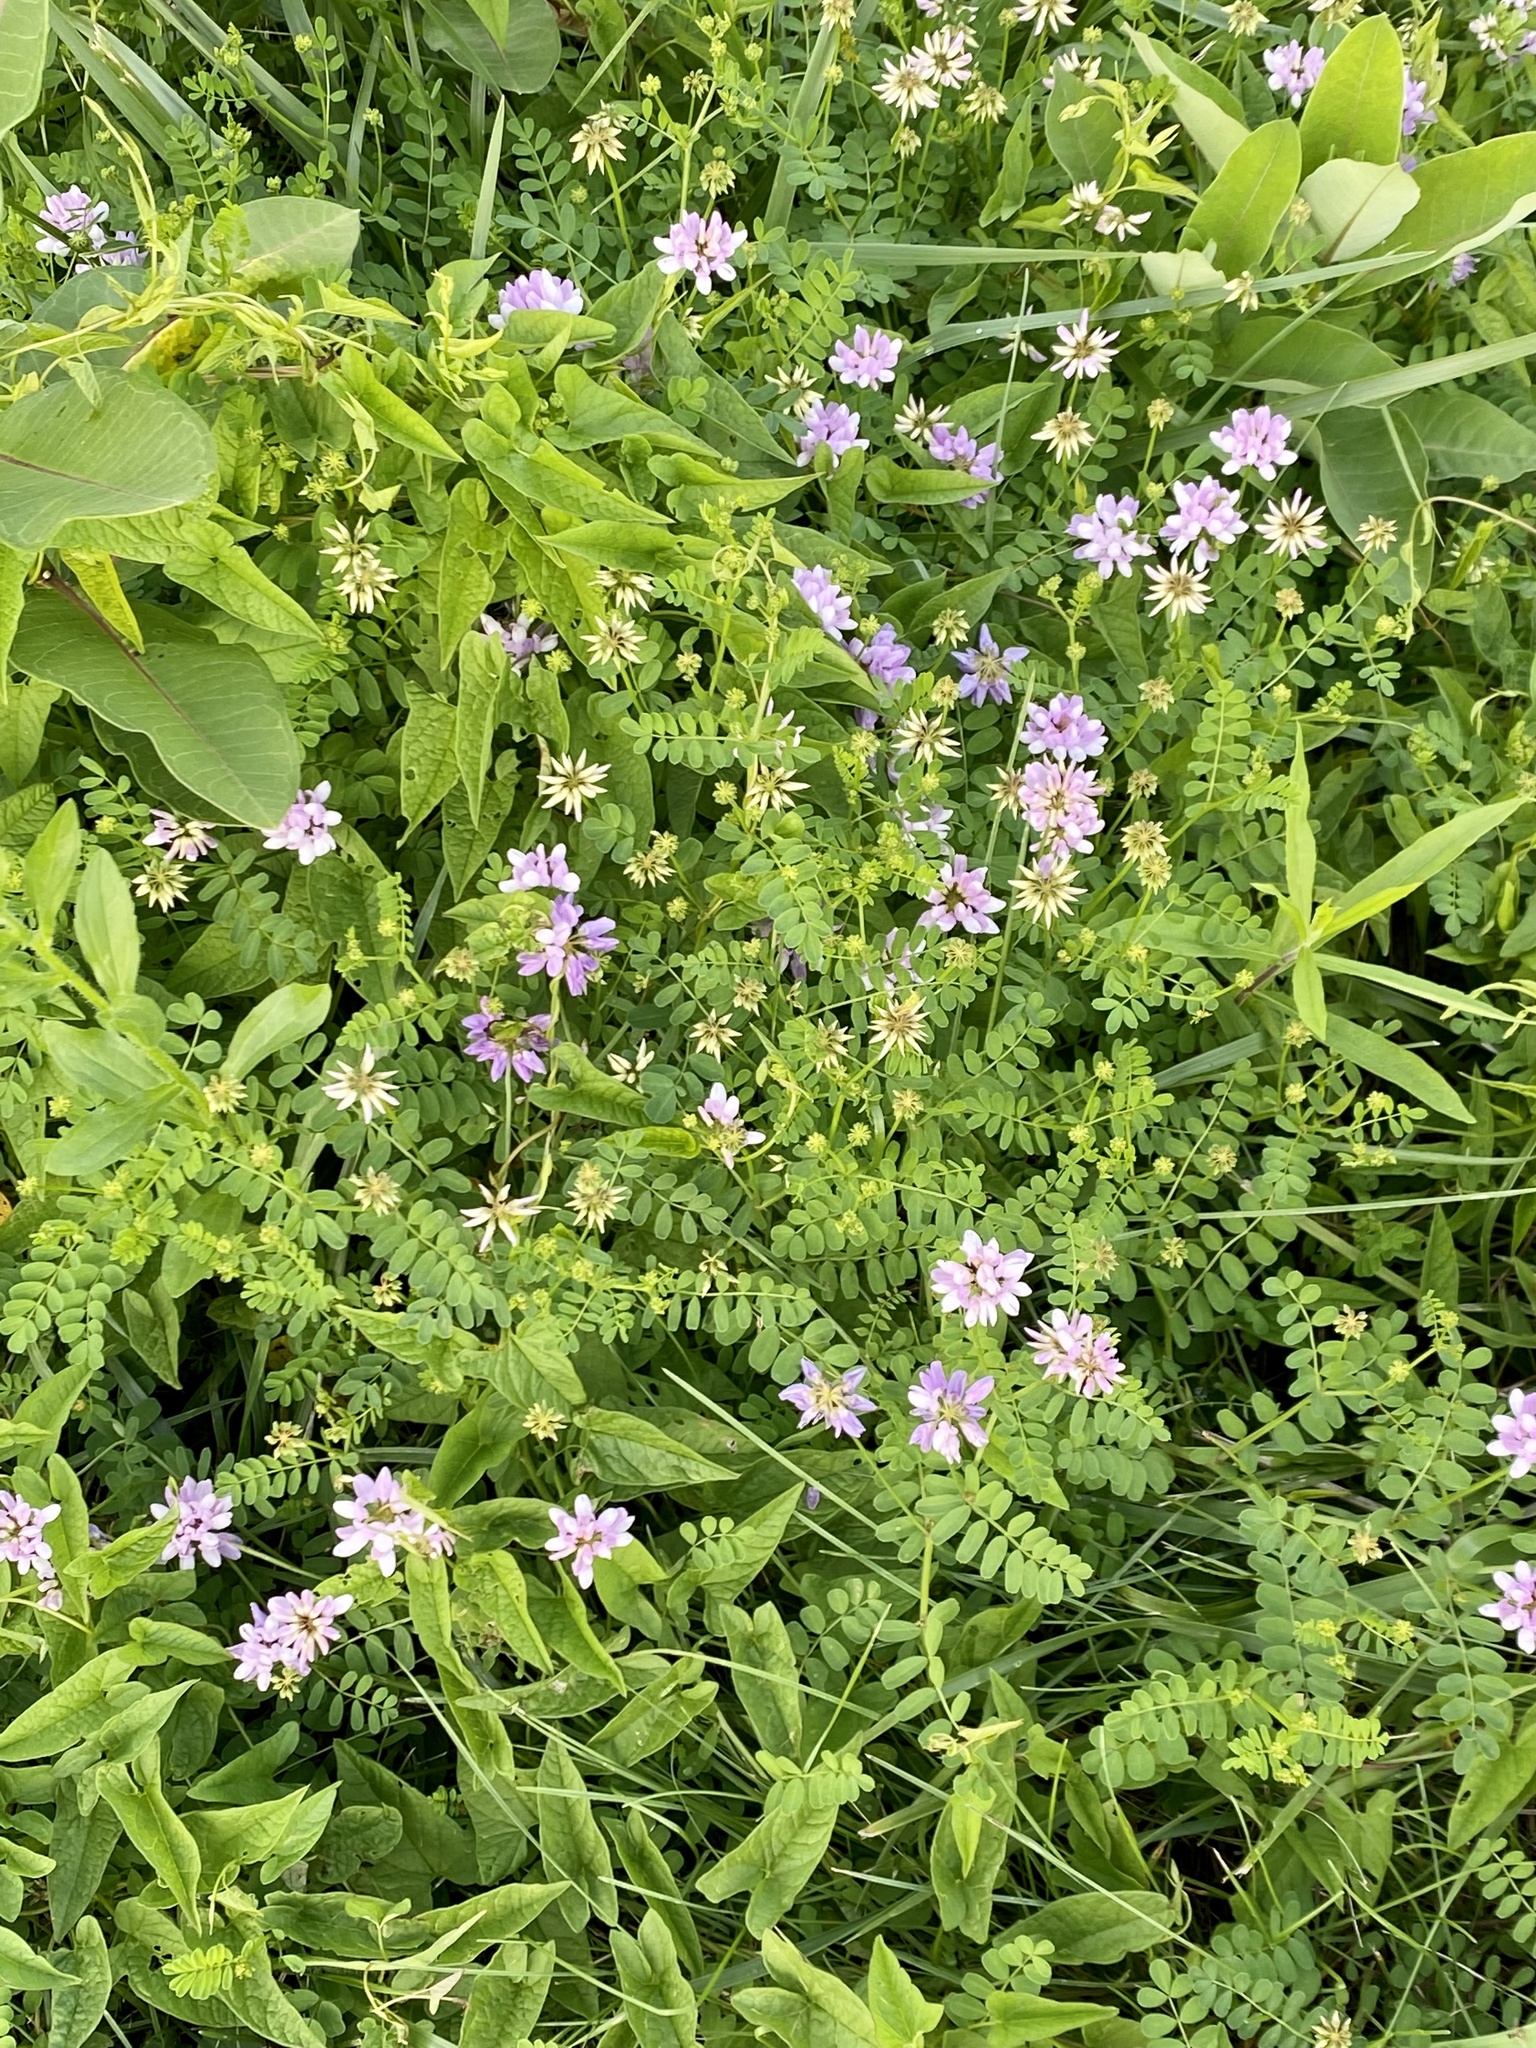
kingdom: Plantae
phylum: Tracheophyta
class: Magnoliopsida
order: Fabales
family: Fabaceae
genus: Coronilla
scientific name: Coronilla varia
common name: Crownvetch
